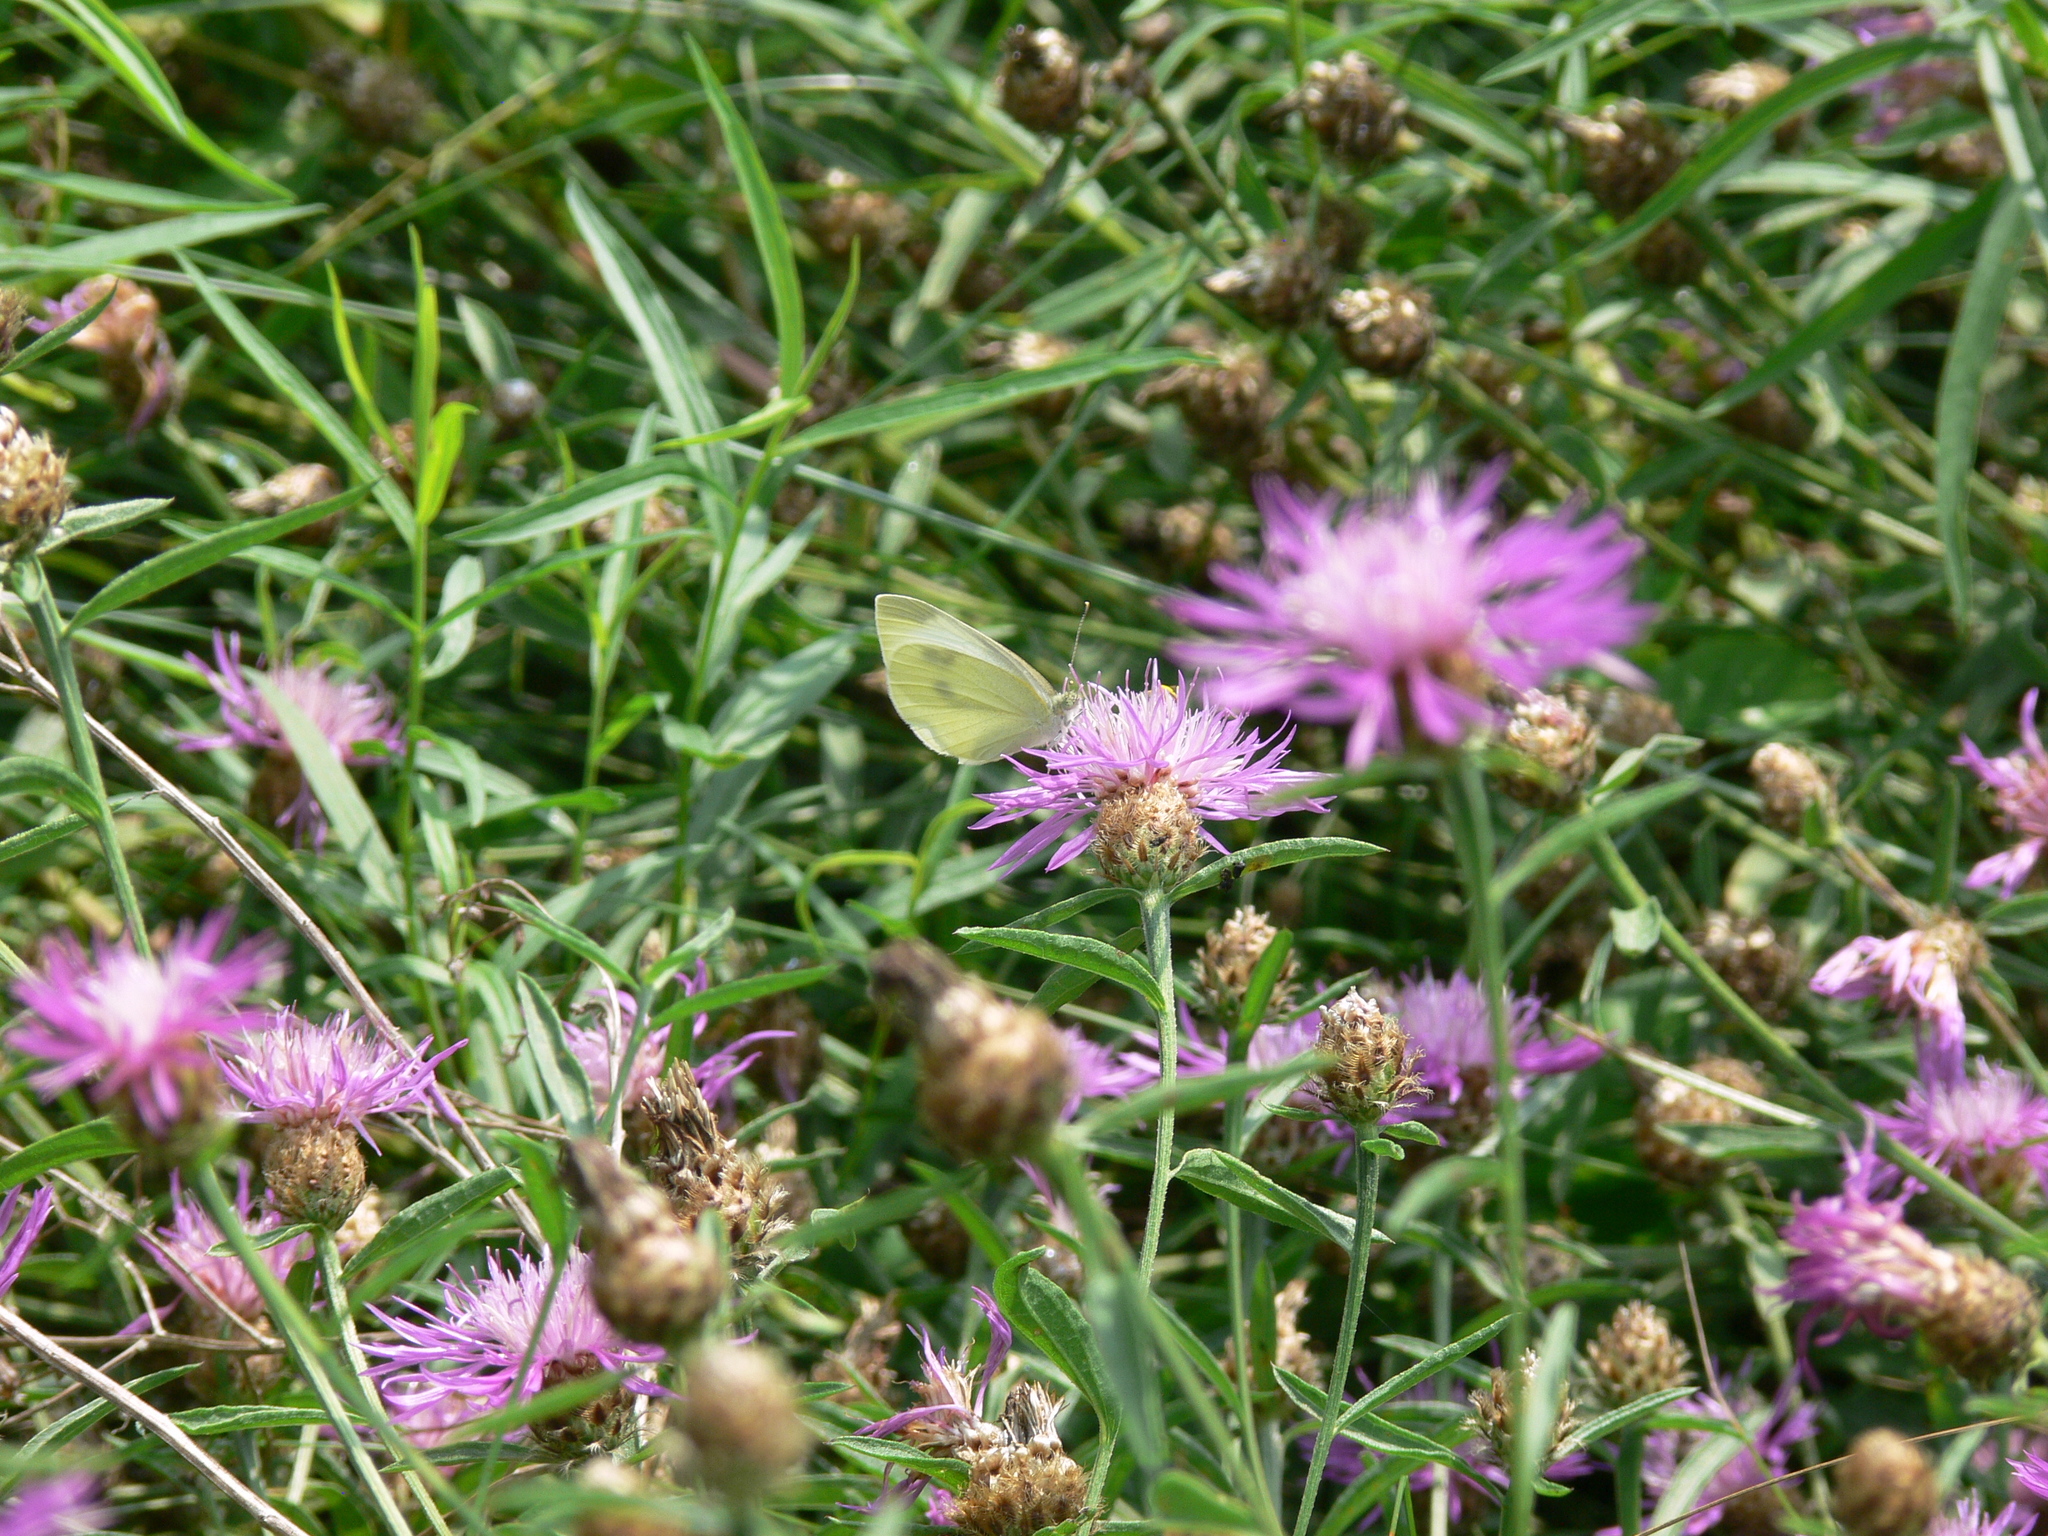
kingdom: Animalia
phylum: Arthropoda
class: Insecta
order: Lepidoptera
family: Pieridae
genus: Pieris
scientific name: Pieris rapae
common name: Small white
